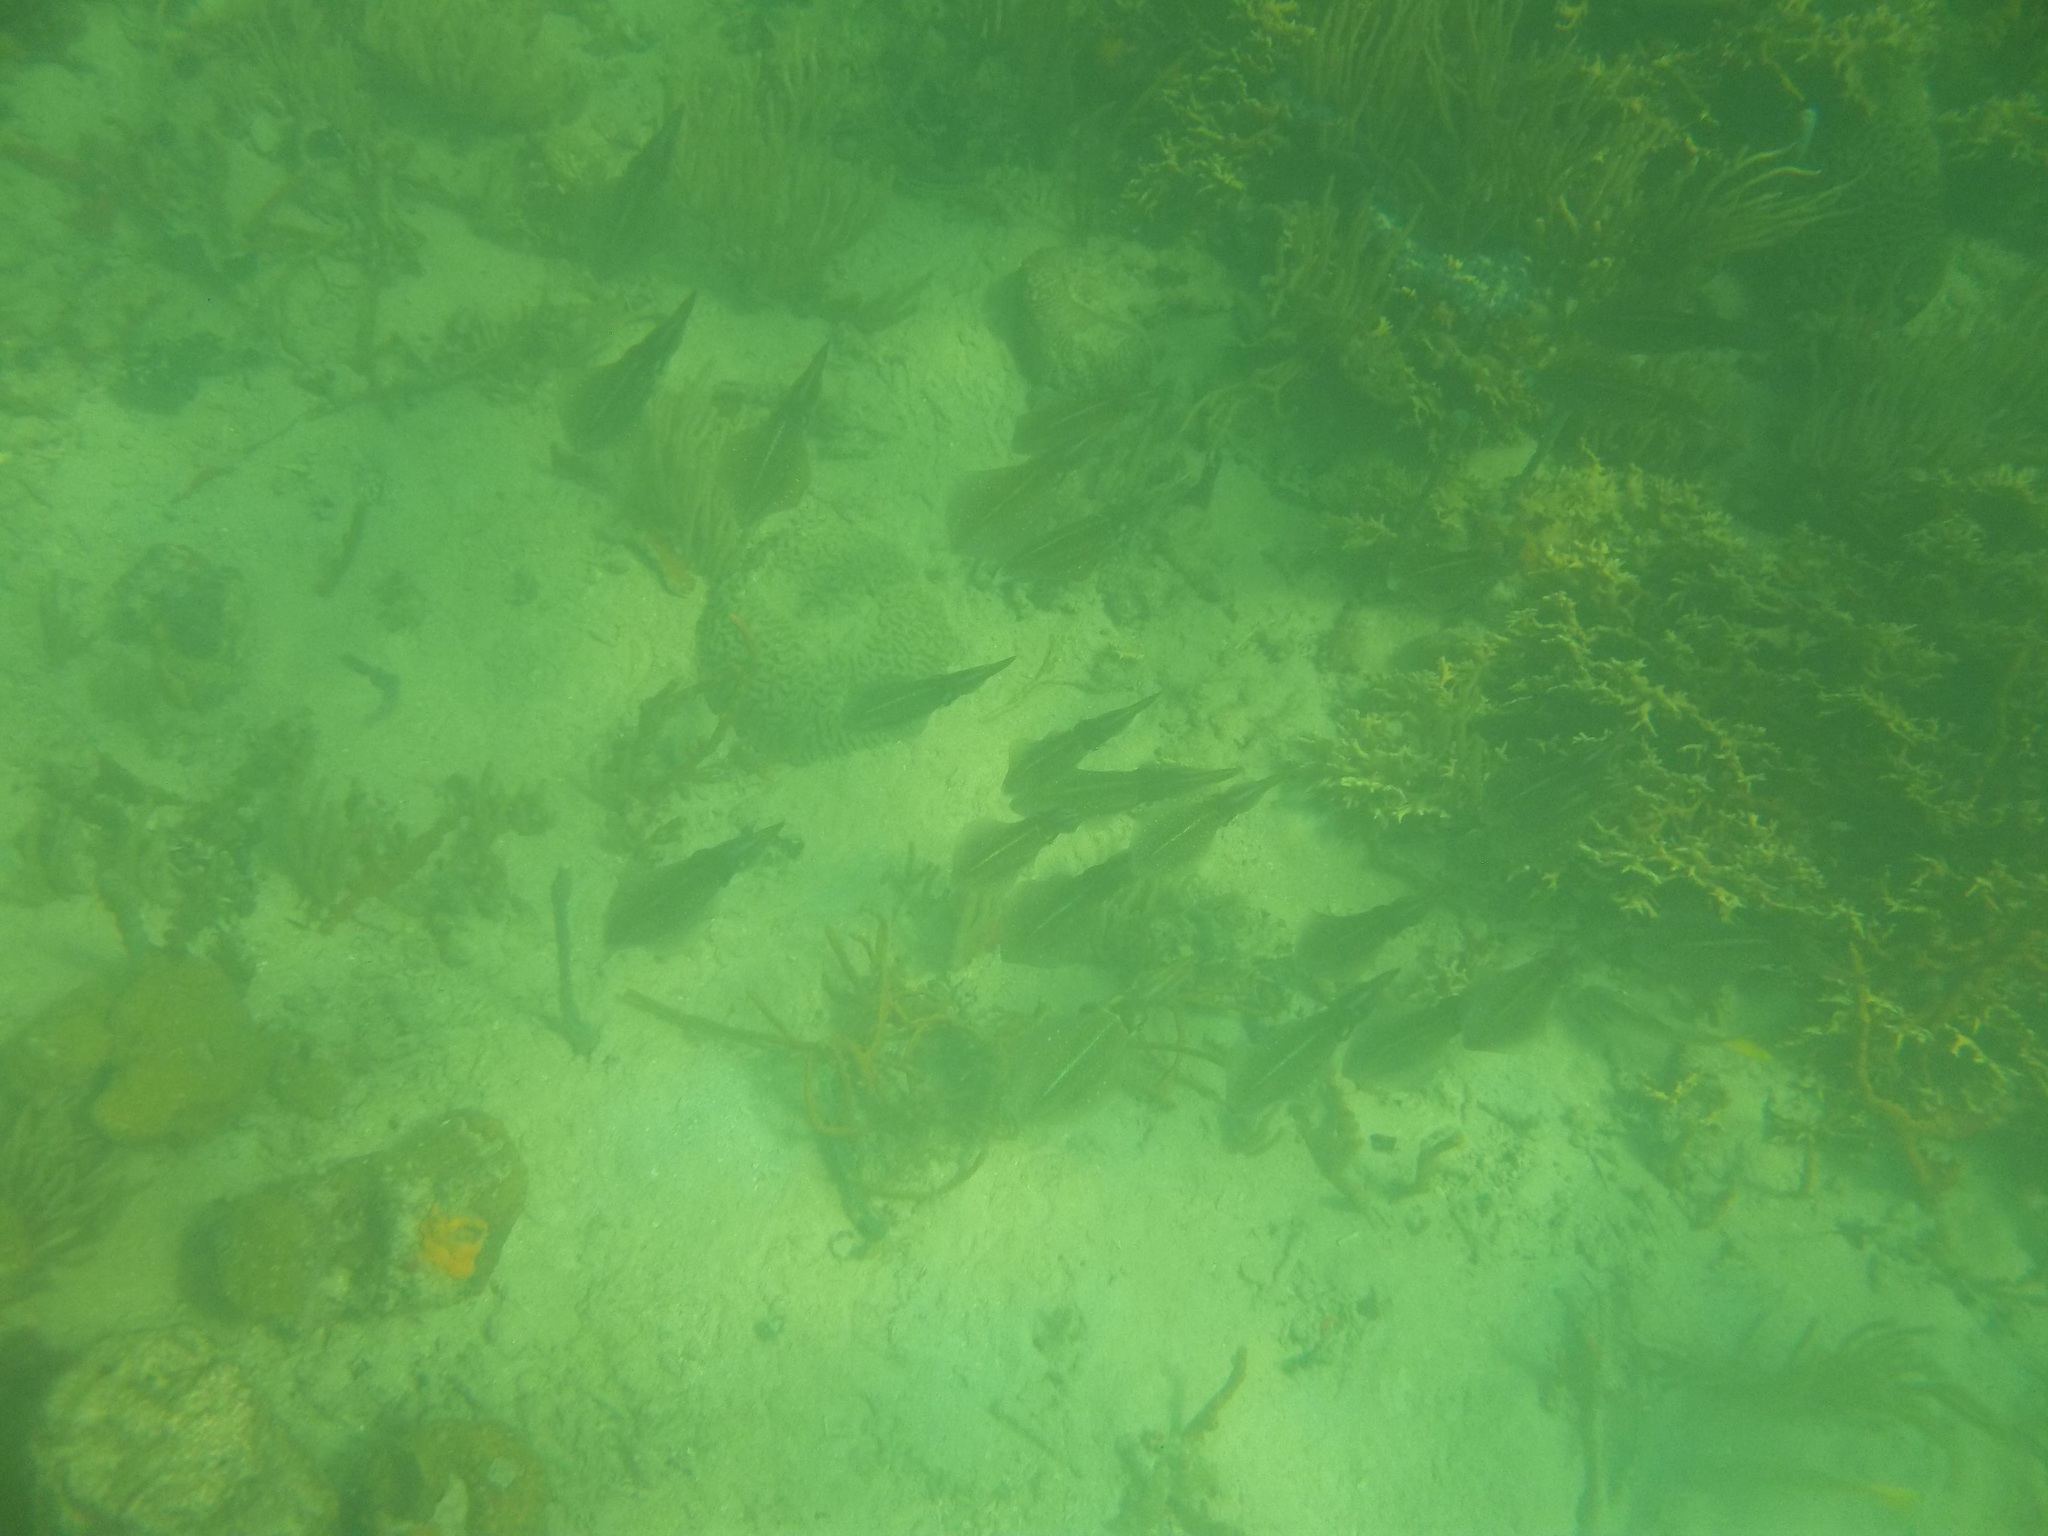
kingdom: Animalia
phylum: Mollusca
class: Cephalopoda
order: Myopsida
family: Loliginidae
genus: Sepioteuthis
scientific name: Sepioteuthis sepioidea
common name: Caribbean reef squid
